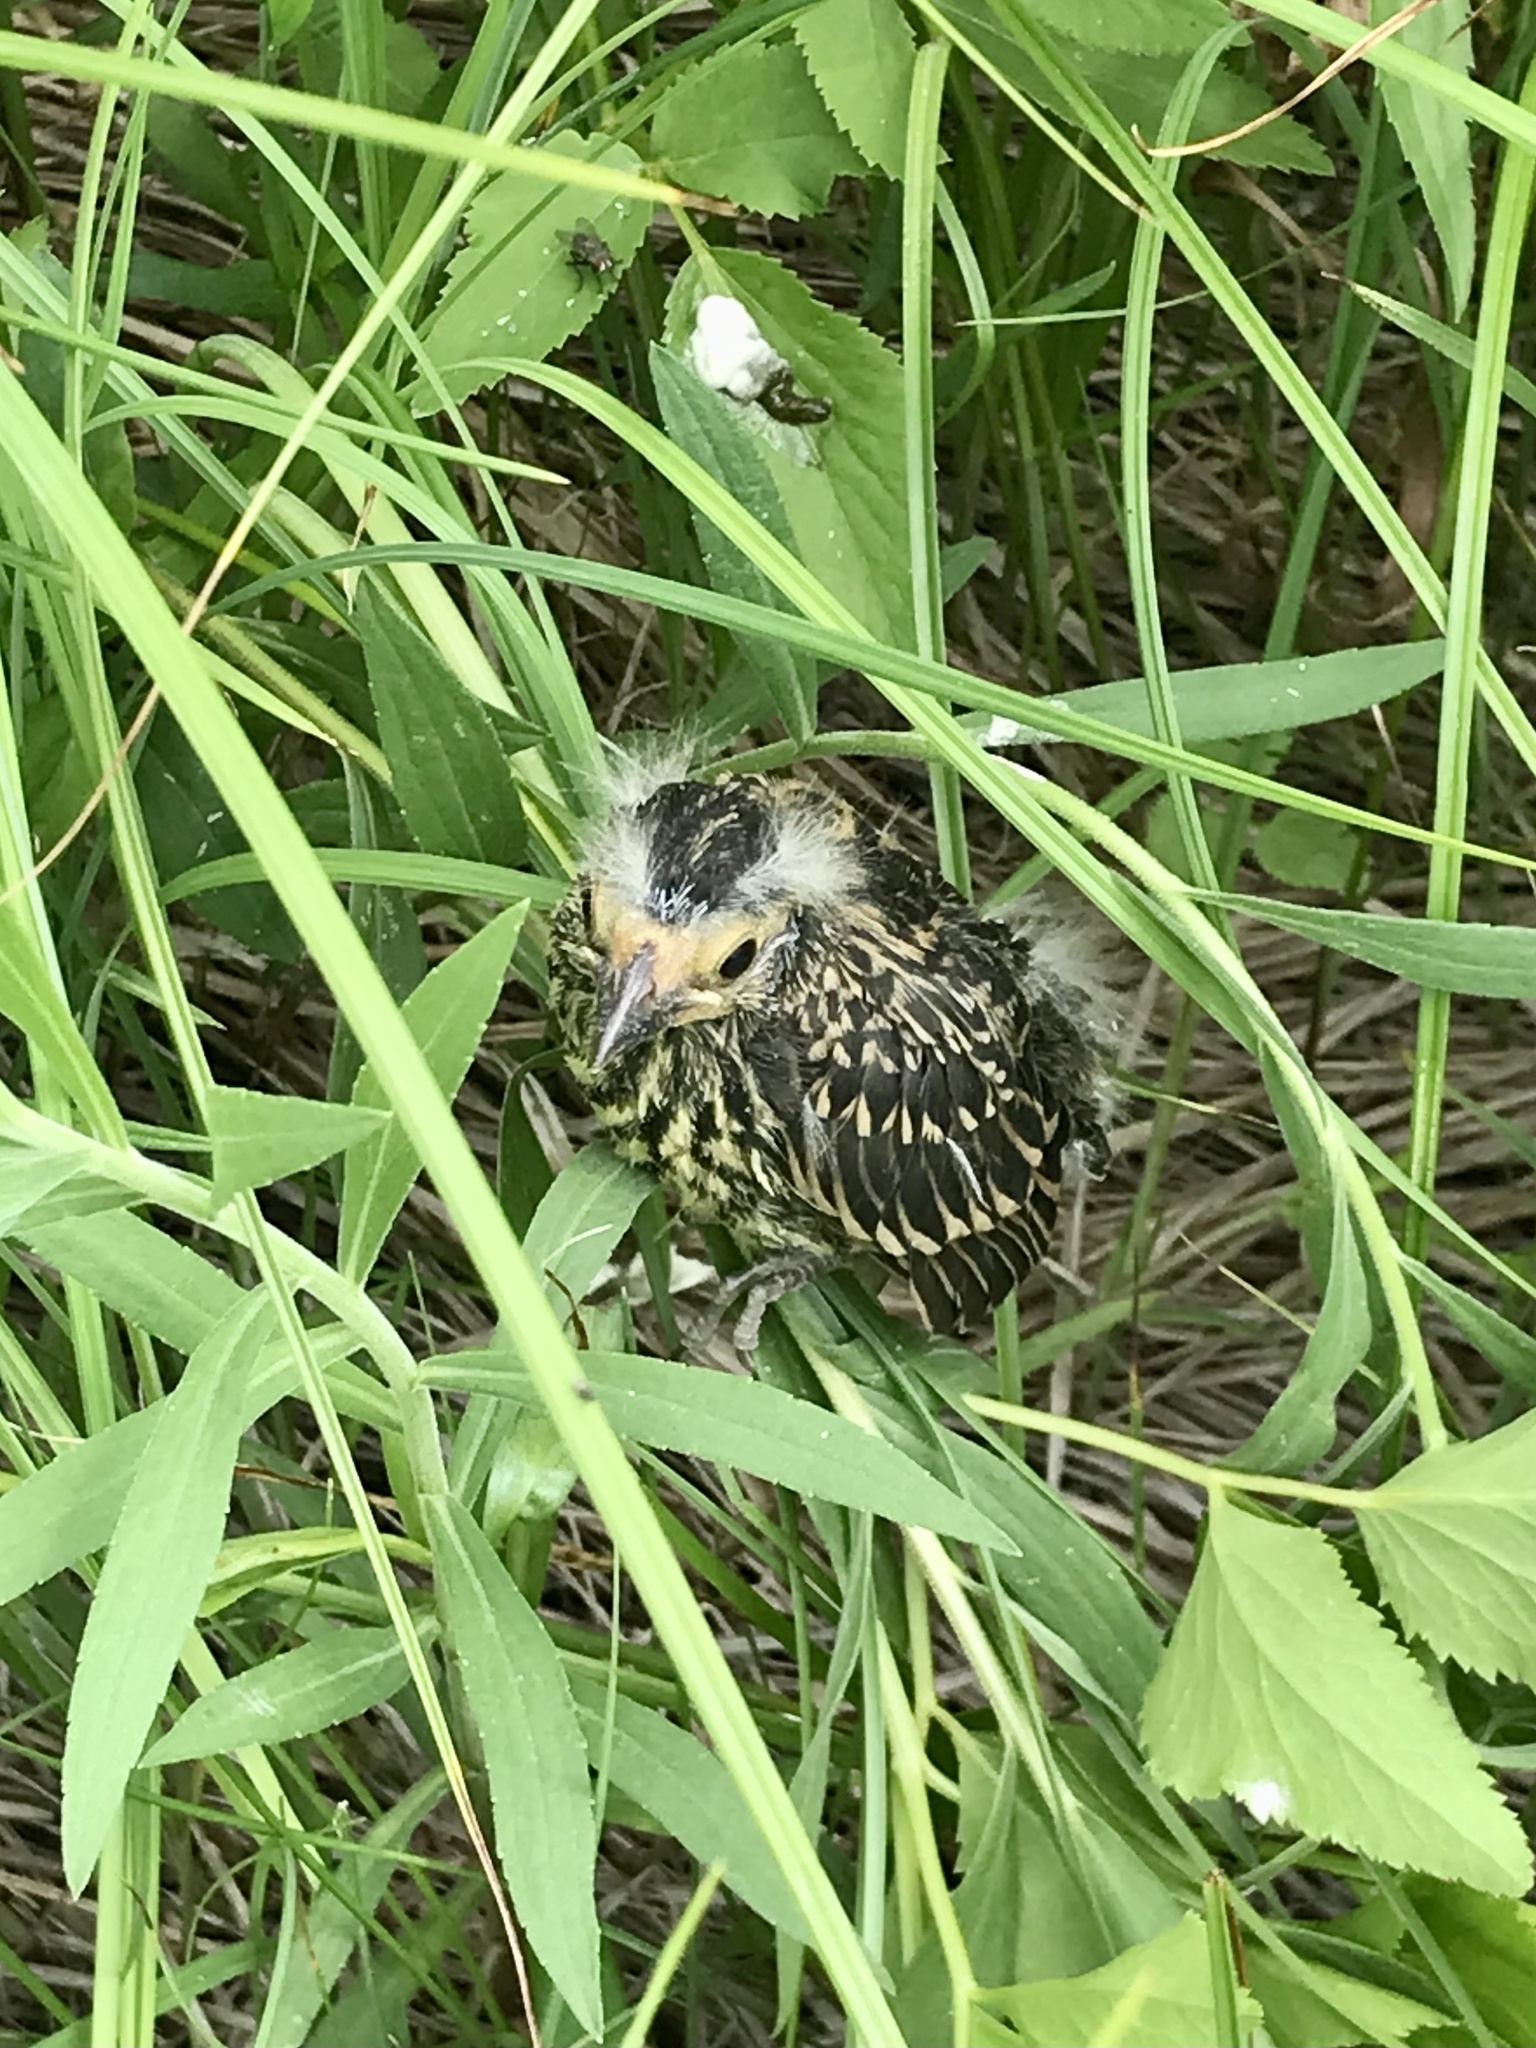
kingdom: Animalia
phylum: Chordata
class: Aves
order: Passeriformes
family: Icteridae
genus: Agelaius
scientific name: Agelaius phoeniceus
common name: Red-winged blackbird
